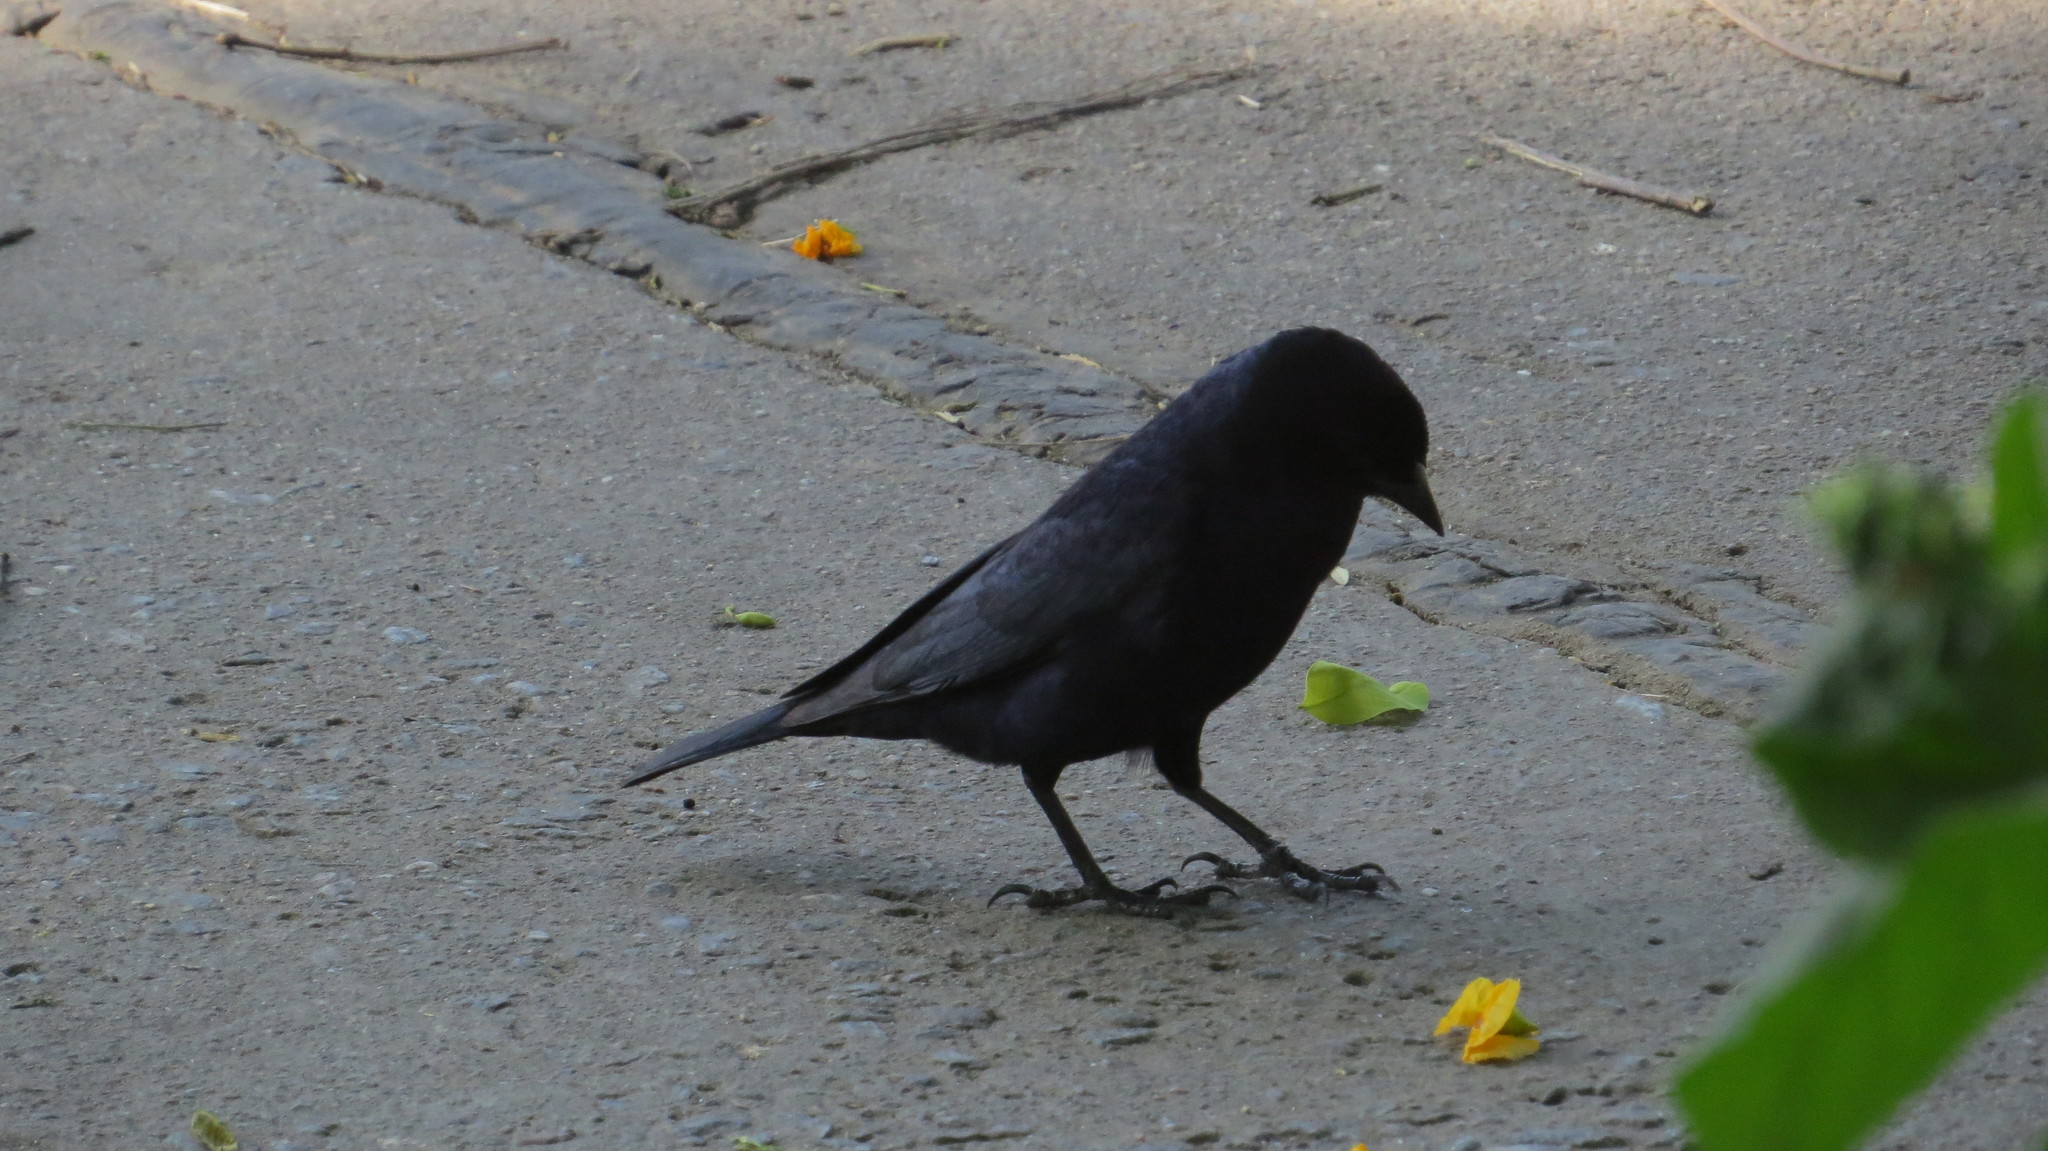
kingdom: Animalia
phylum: Chordata
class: Aves
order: Passeriformes
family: Icteridae
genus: Molothrus
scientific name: Molothrus bonariensis
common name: Shiny cowbird
